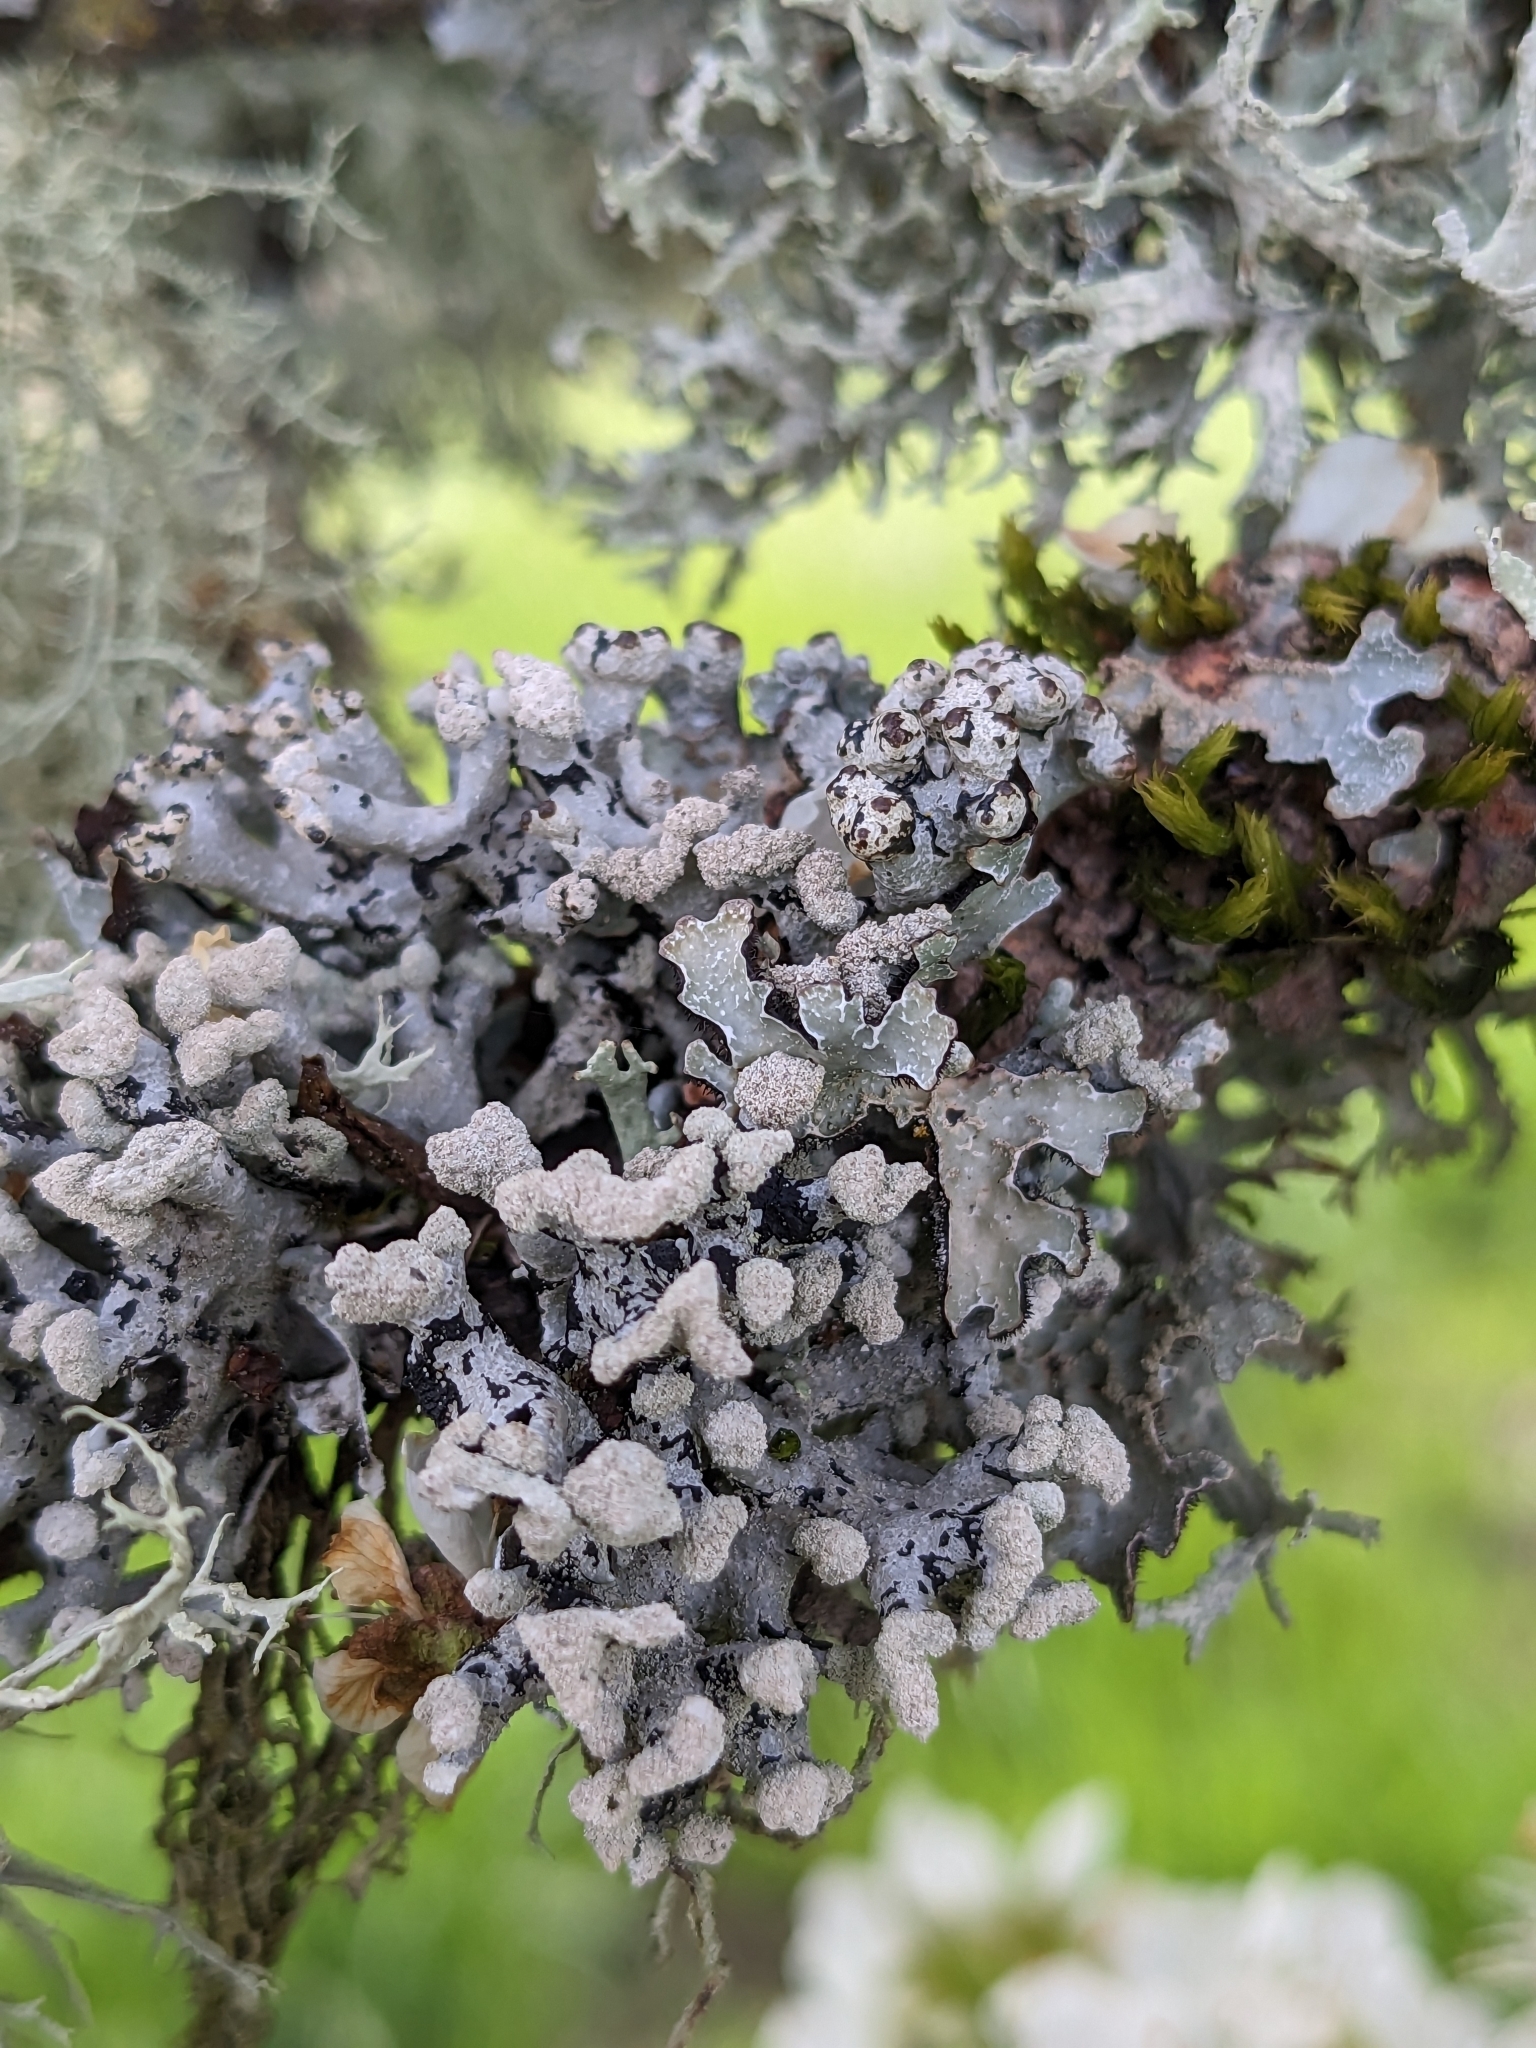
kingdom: Fungi
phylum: Ascomycota
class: Lecanoromycetes
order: Lecanorales
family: Parmeliaceae
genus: Hypogymnia
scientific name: Hypogymnia tubulosa
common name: Powder-headed tube lichen
